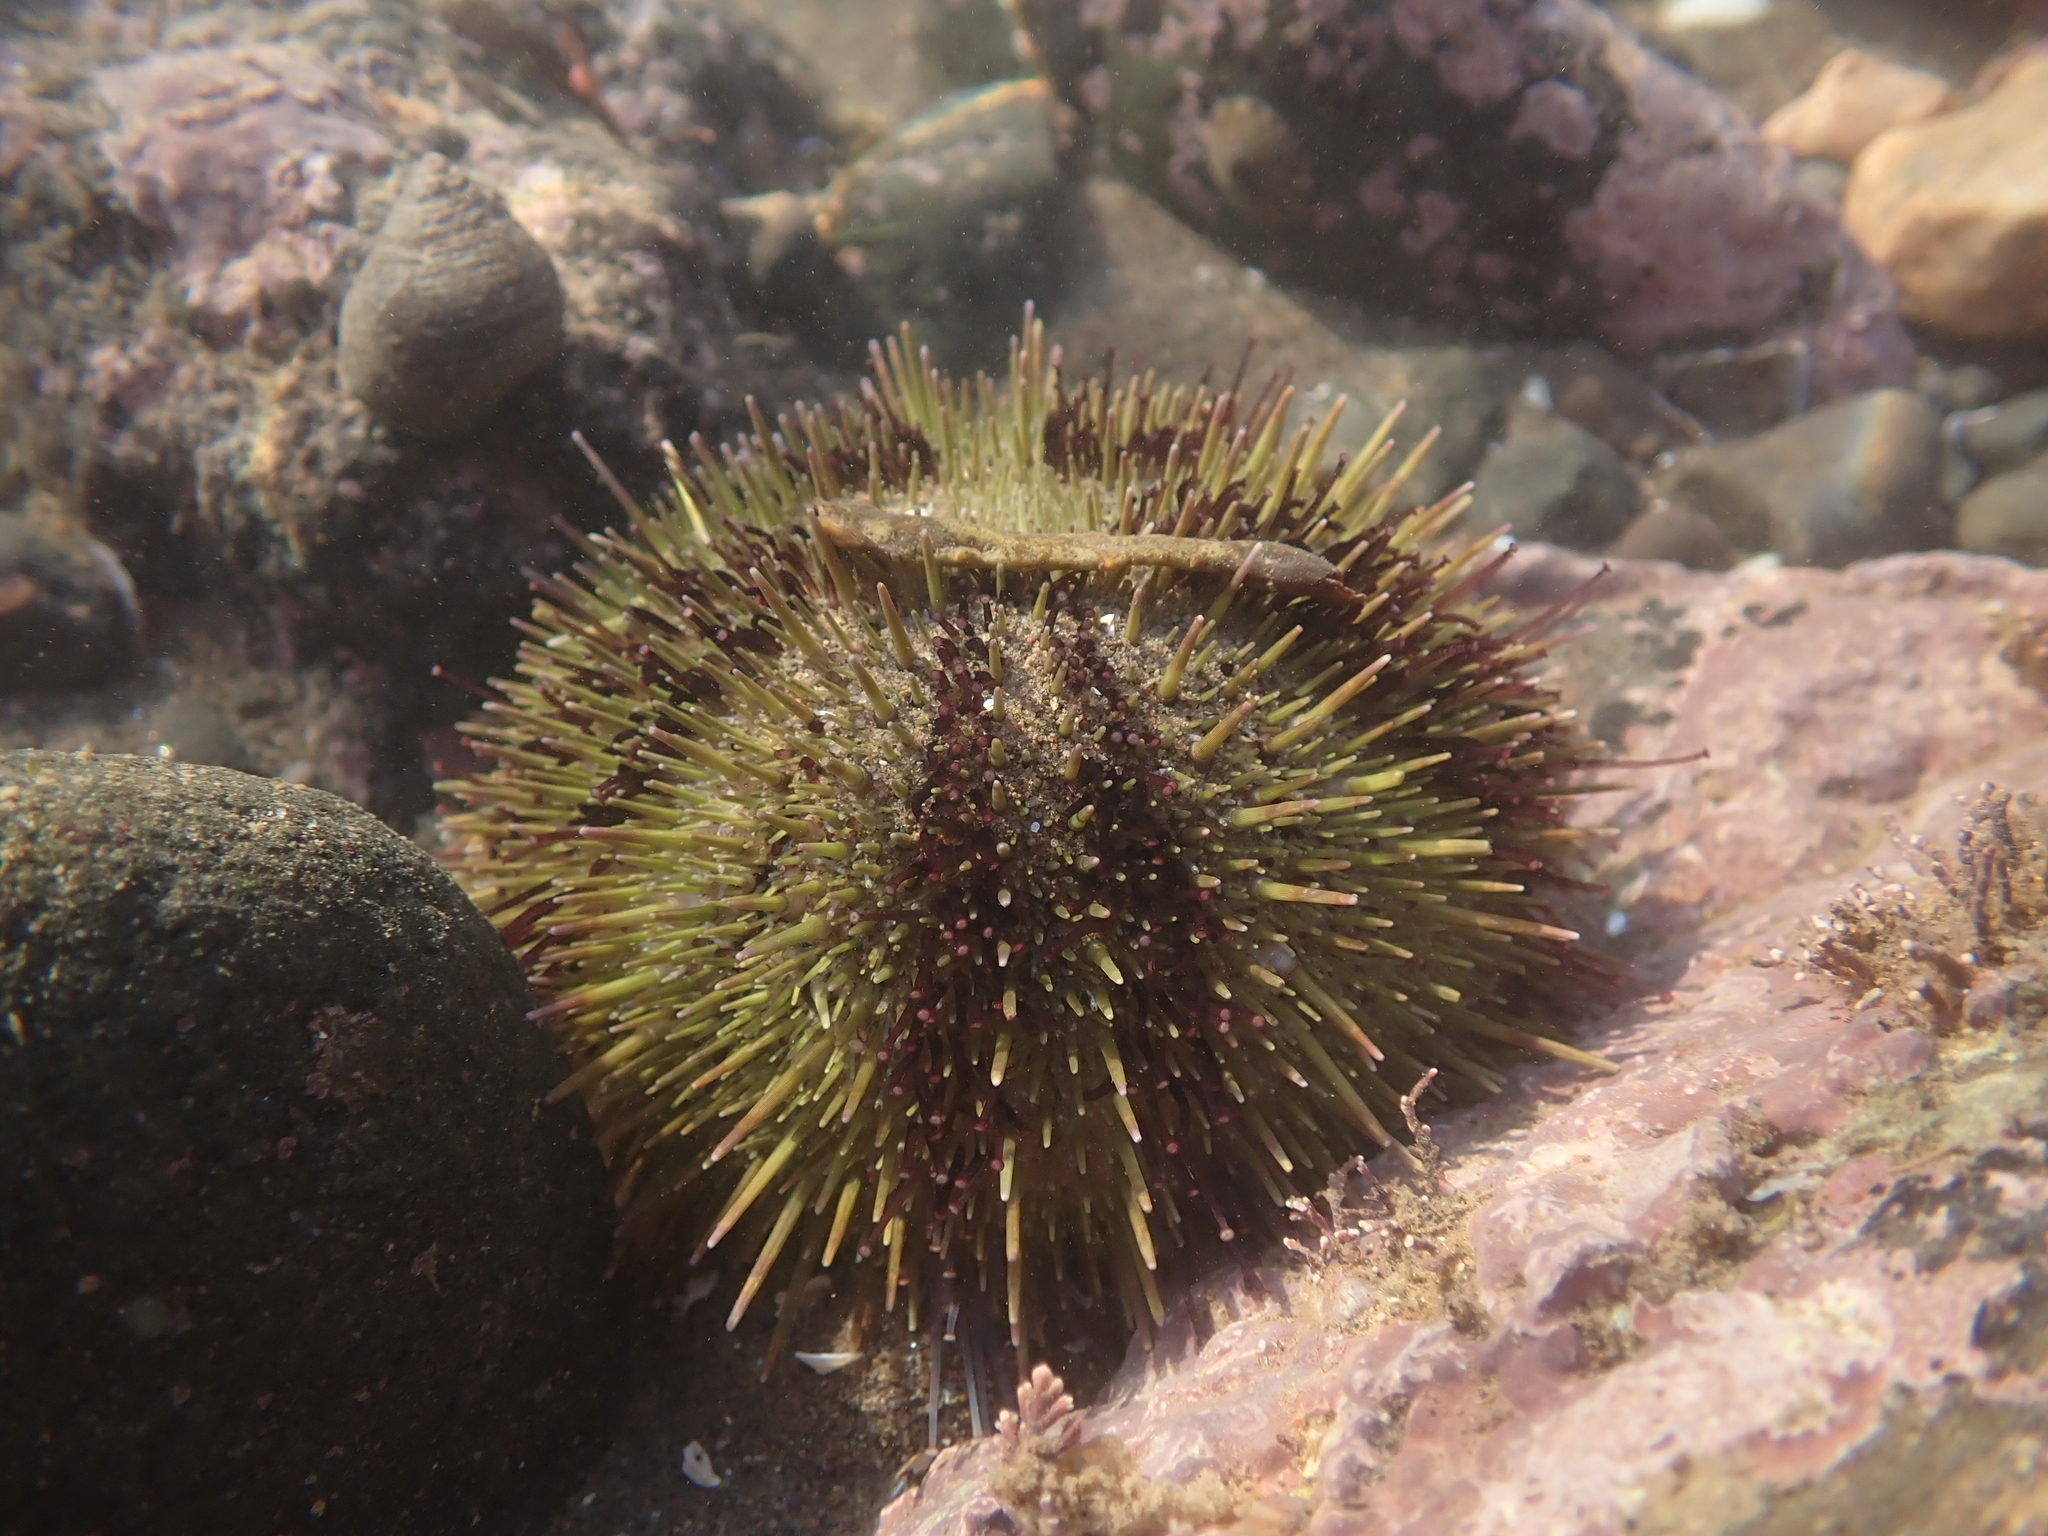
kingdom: Animalia
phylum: Echinodermata
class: Echinoidea
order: Camarodonta
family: Strongylocentrotidae
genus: Strongylocentrotus
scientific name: Strongylocentrotus droebachiensis
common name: Northern sea urchin
